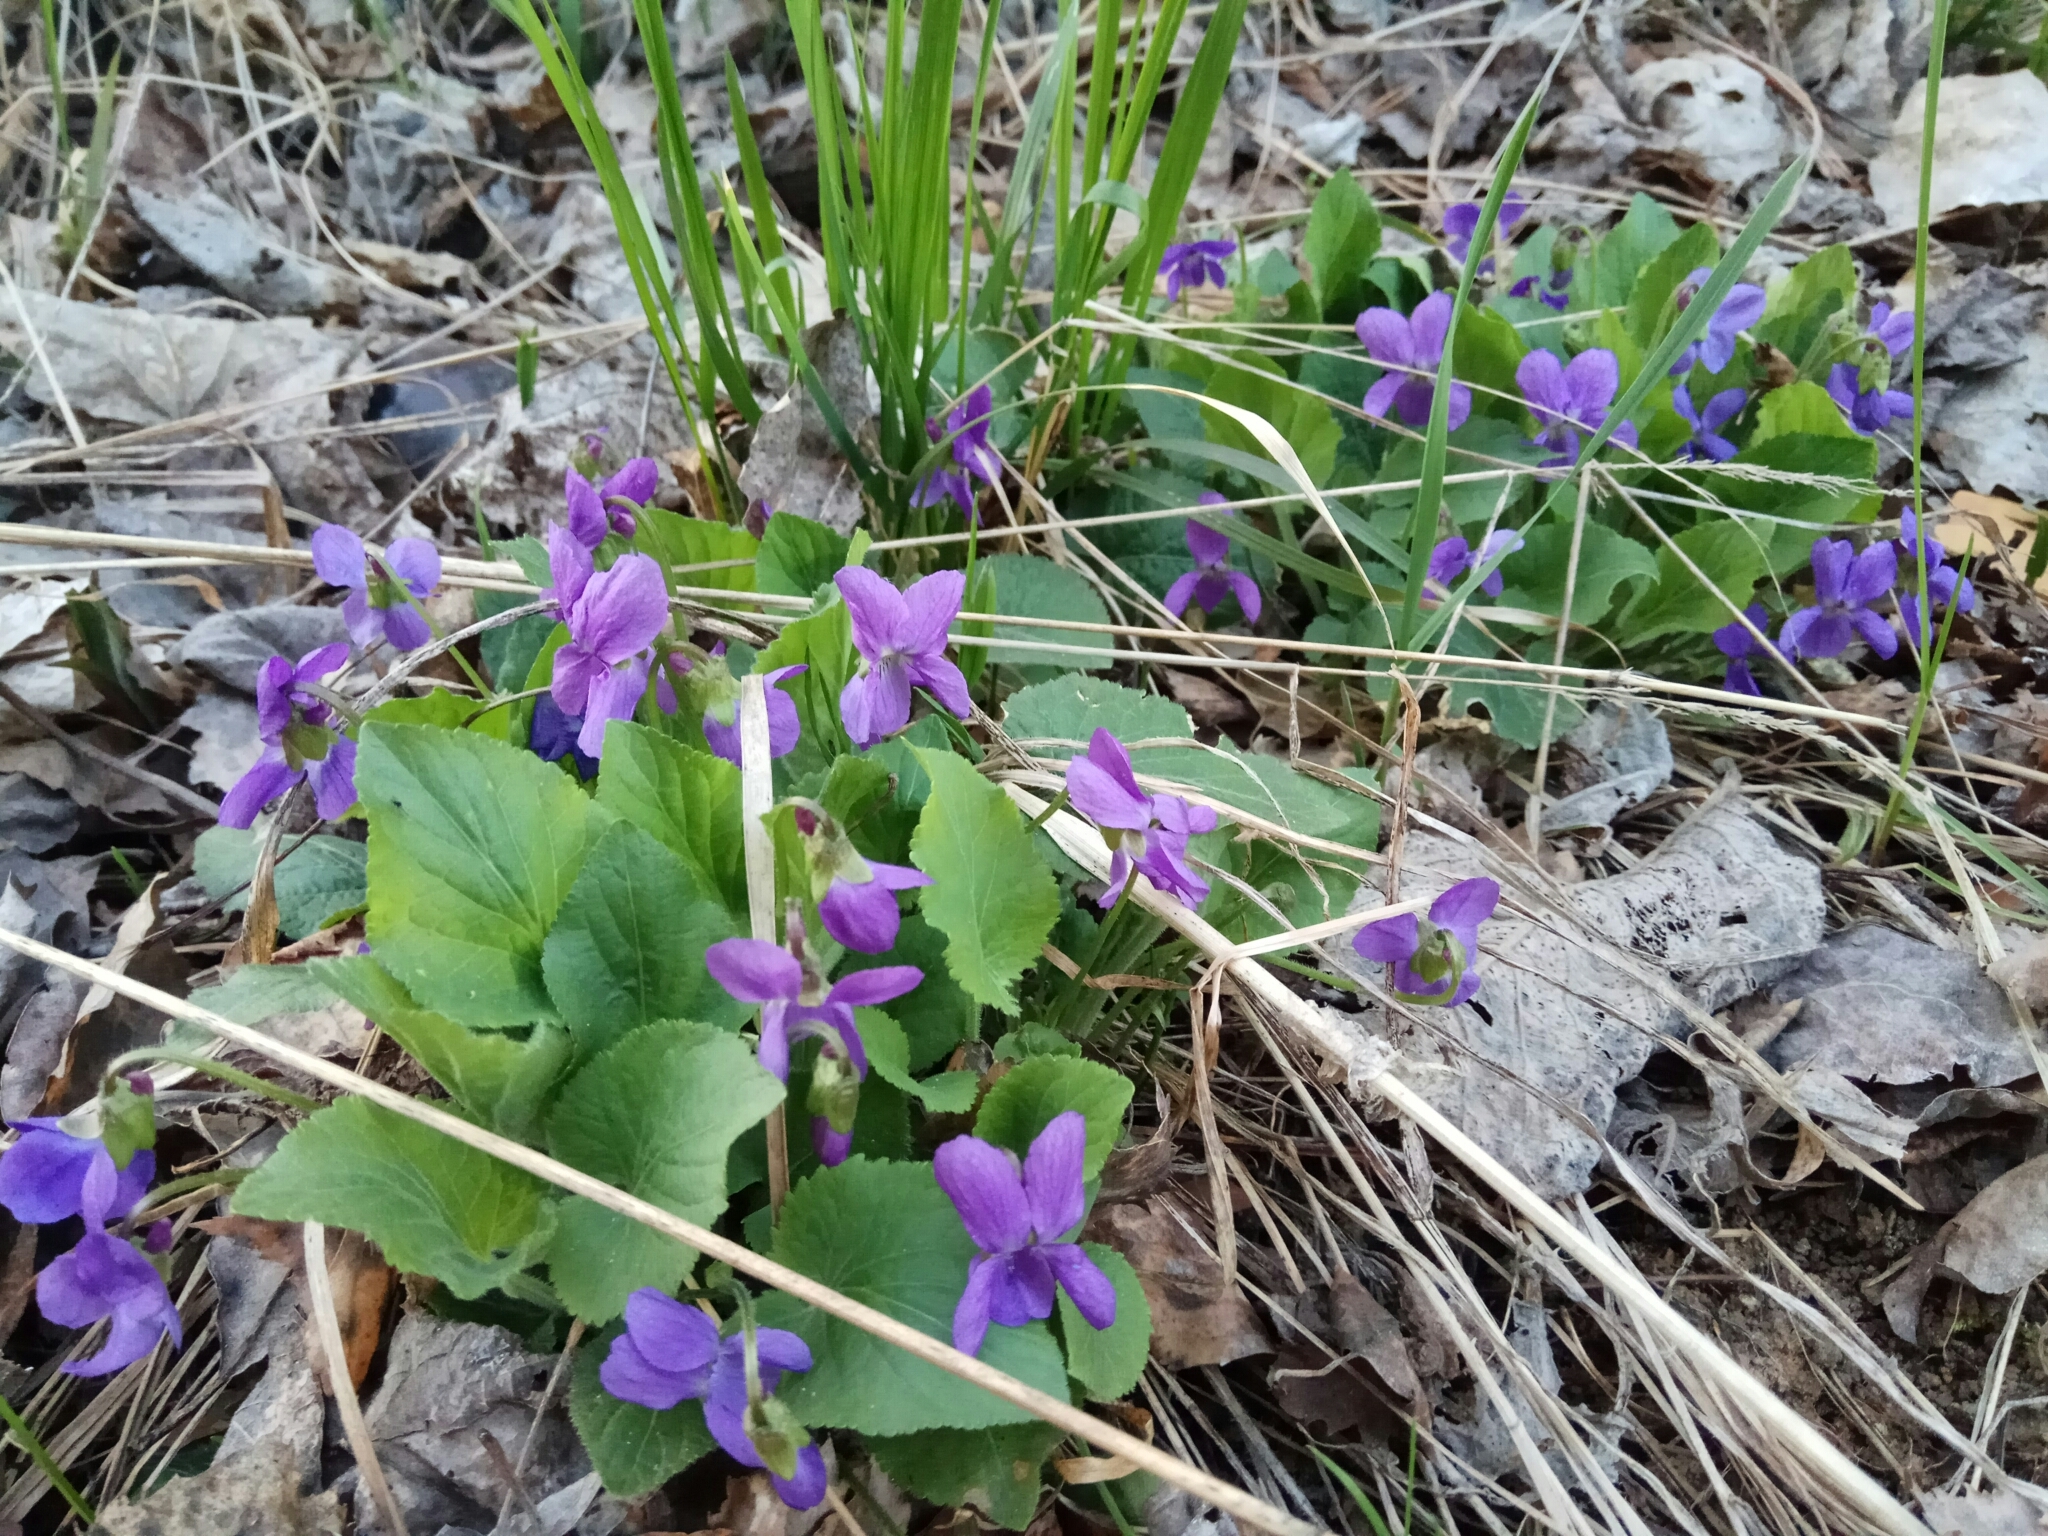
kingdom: Plantae
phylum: Tracheophyta
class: Magnoliopsida
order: Malpighiales
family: Violaceae
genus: Viola
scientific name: Viola hirta
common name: Hairy violet
